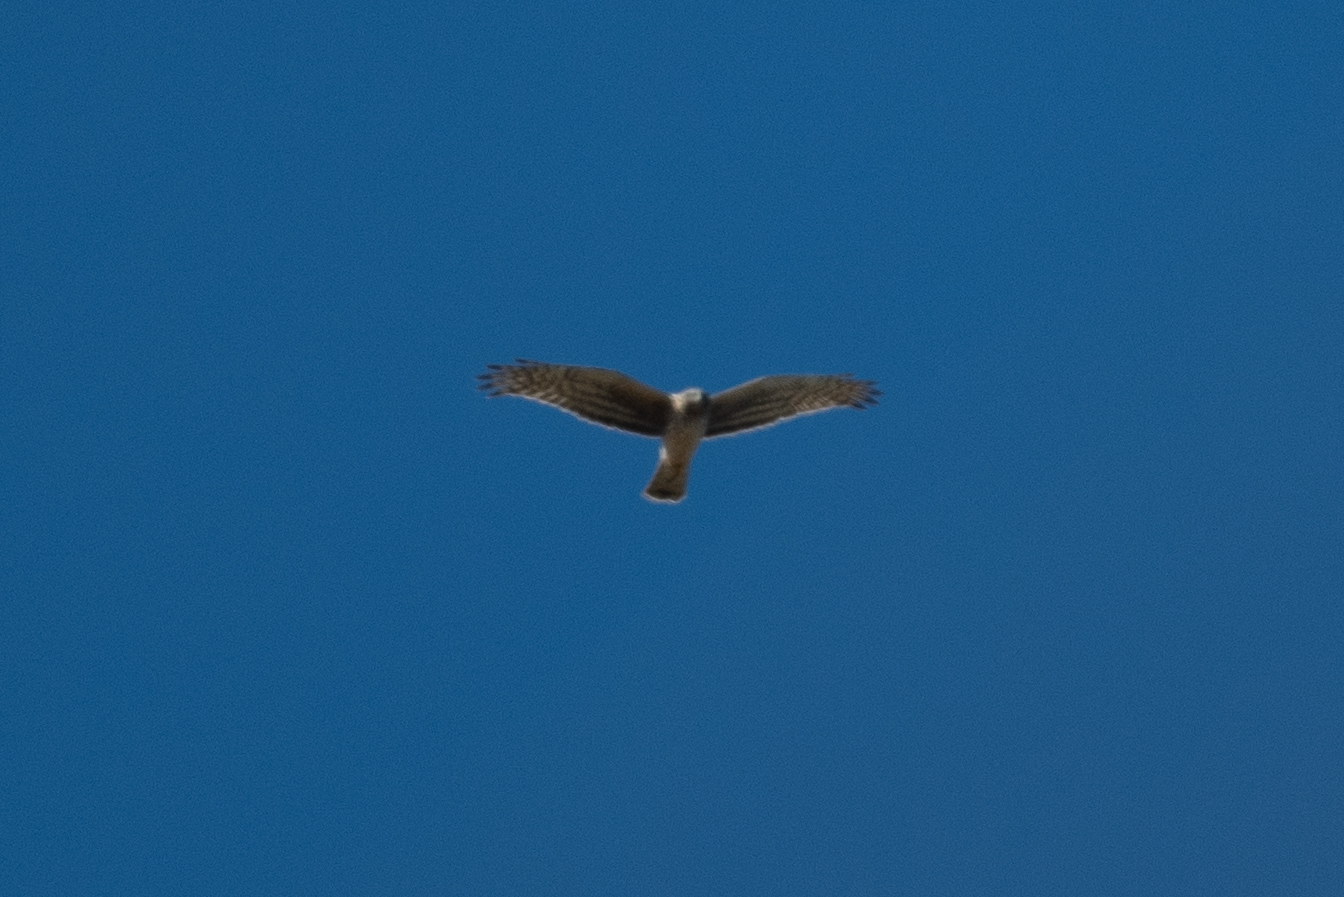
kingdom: Animalia
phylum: Chordata
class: Aves
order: Accipitriformes
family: Accipitridae
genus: Circus
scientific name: Circus cyaneus
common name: Hen harrier
